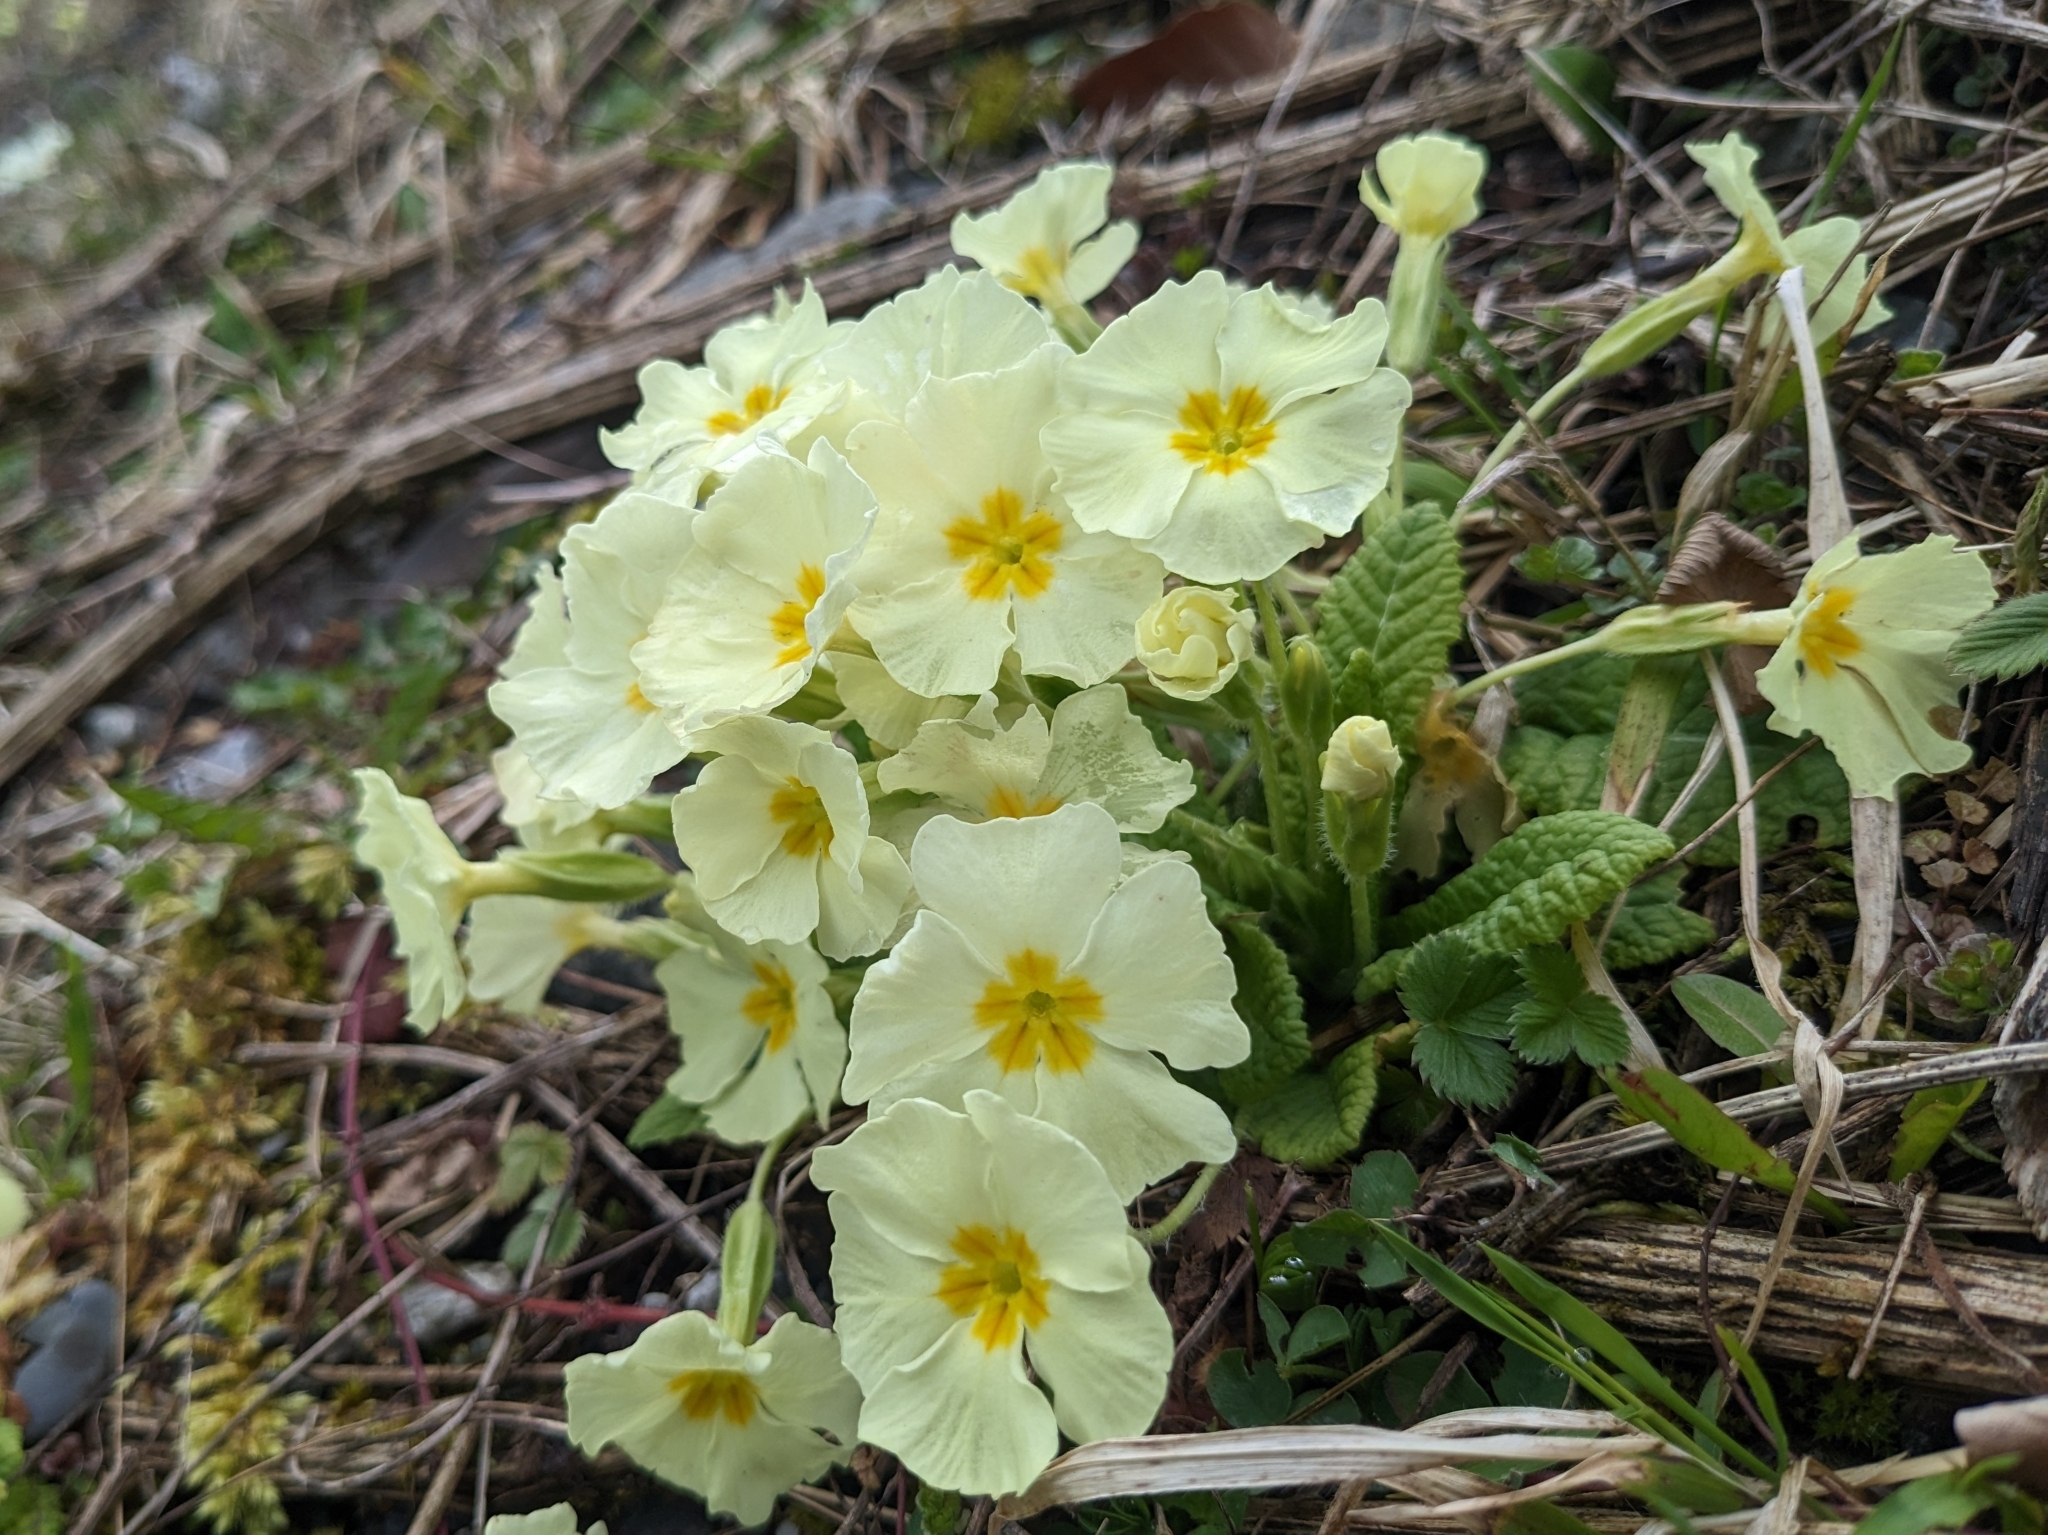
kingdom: Plantae
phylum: Tracheophyta
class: Magnoliopsida
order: Ericales
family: Primulaceae
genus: Primula
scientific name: Primula vulgaris
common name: Primrose
